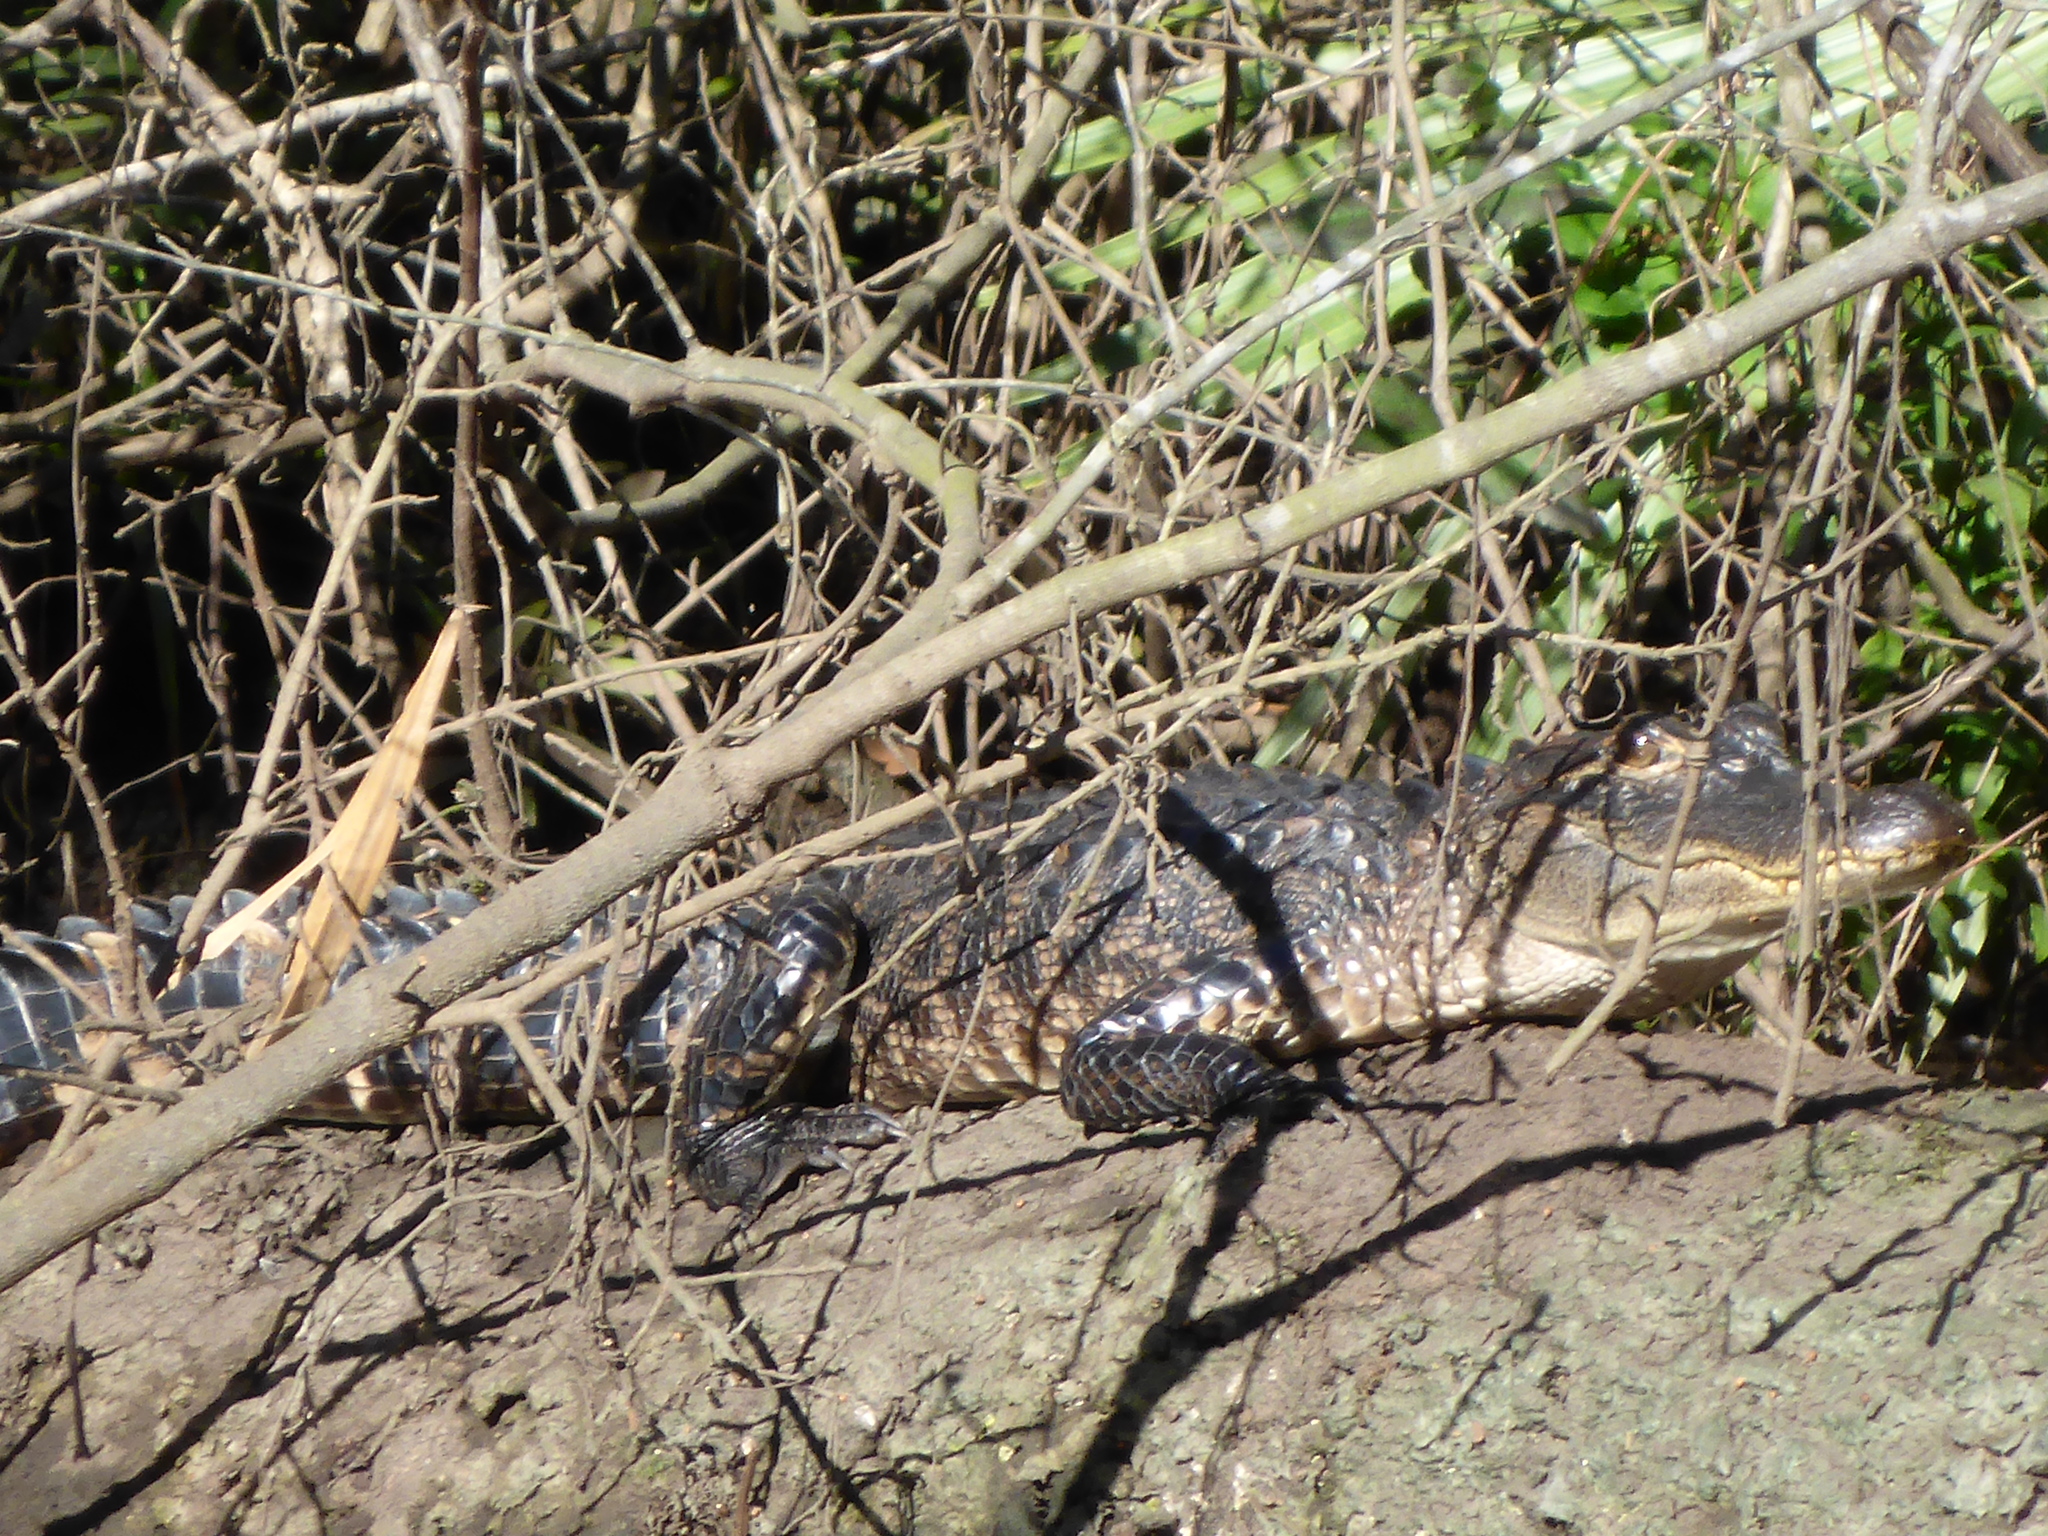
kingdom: Animalia
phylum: Chordata
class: Crocodylia
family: Alligatoridae
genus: Alligator
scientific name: Alligator mississippiensis
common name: American alligator
